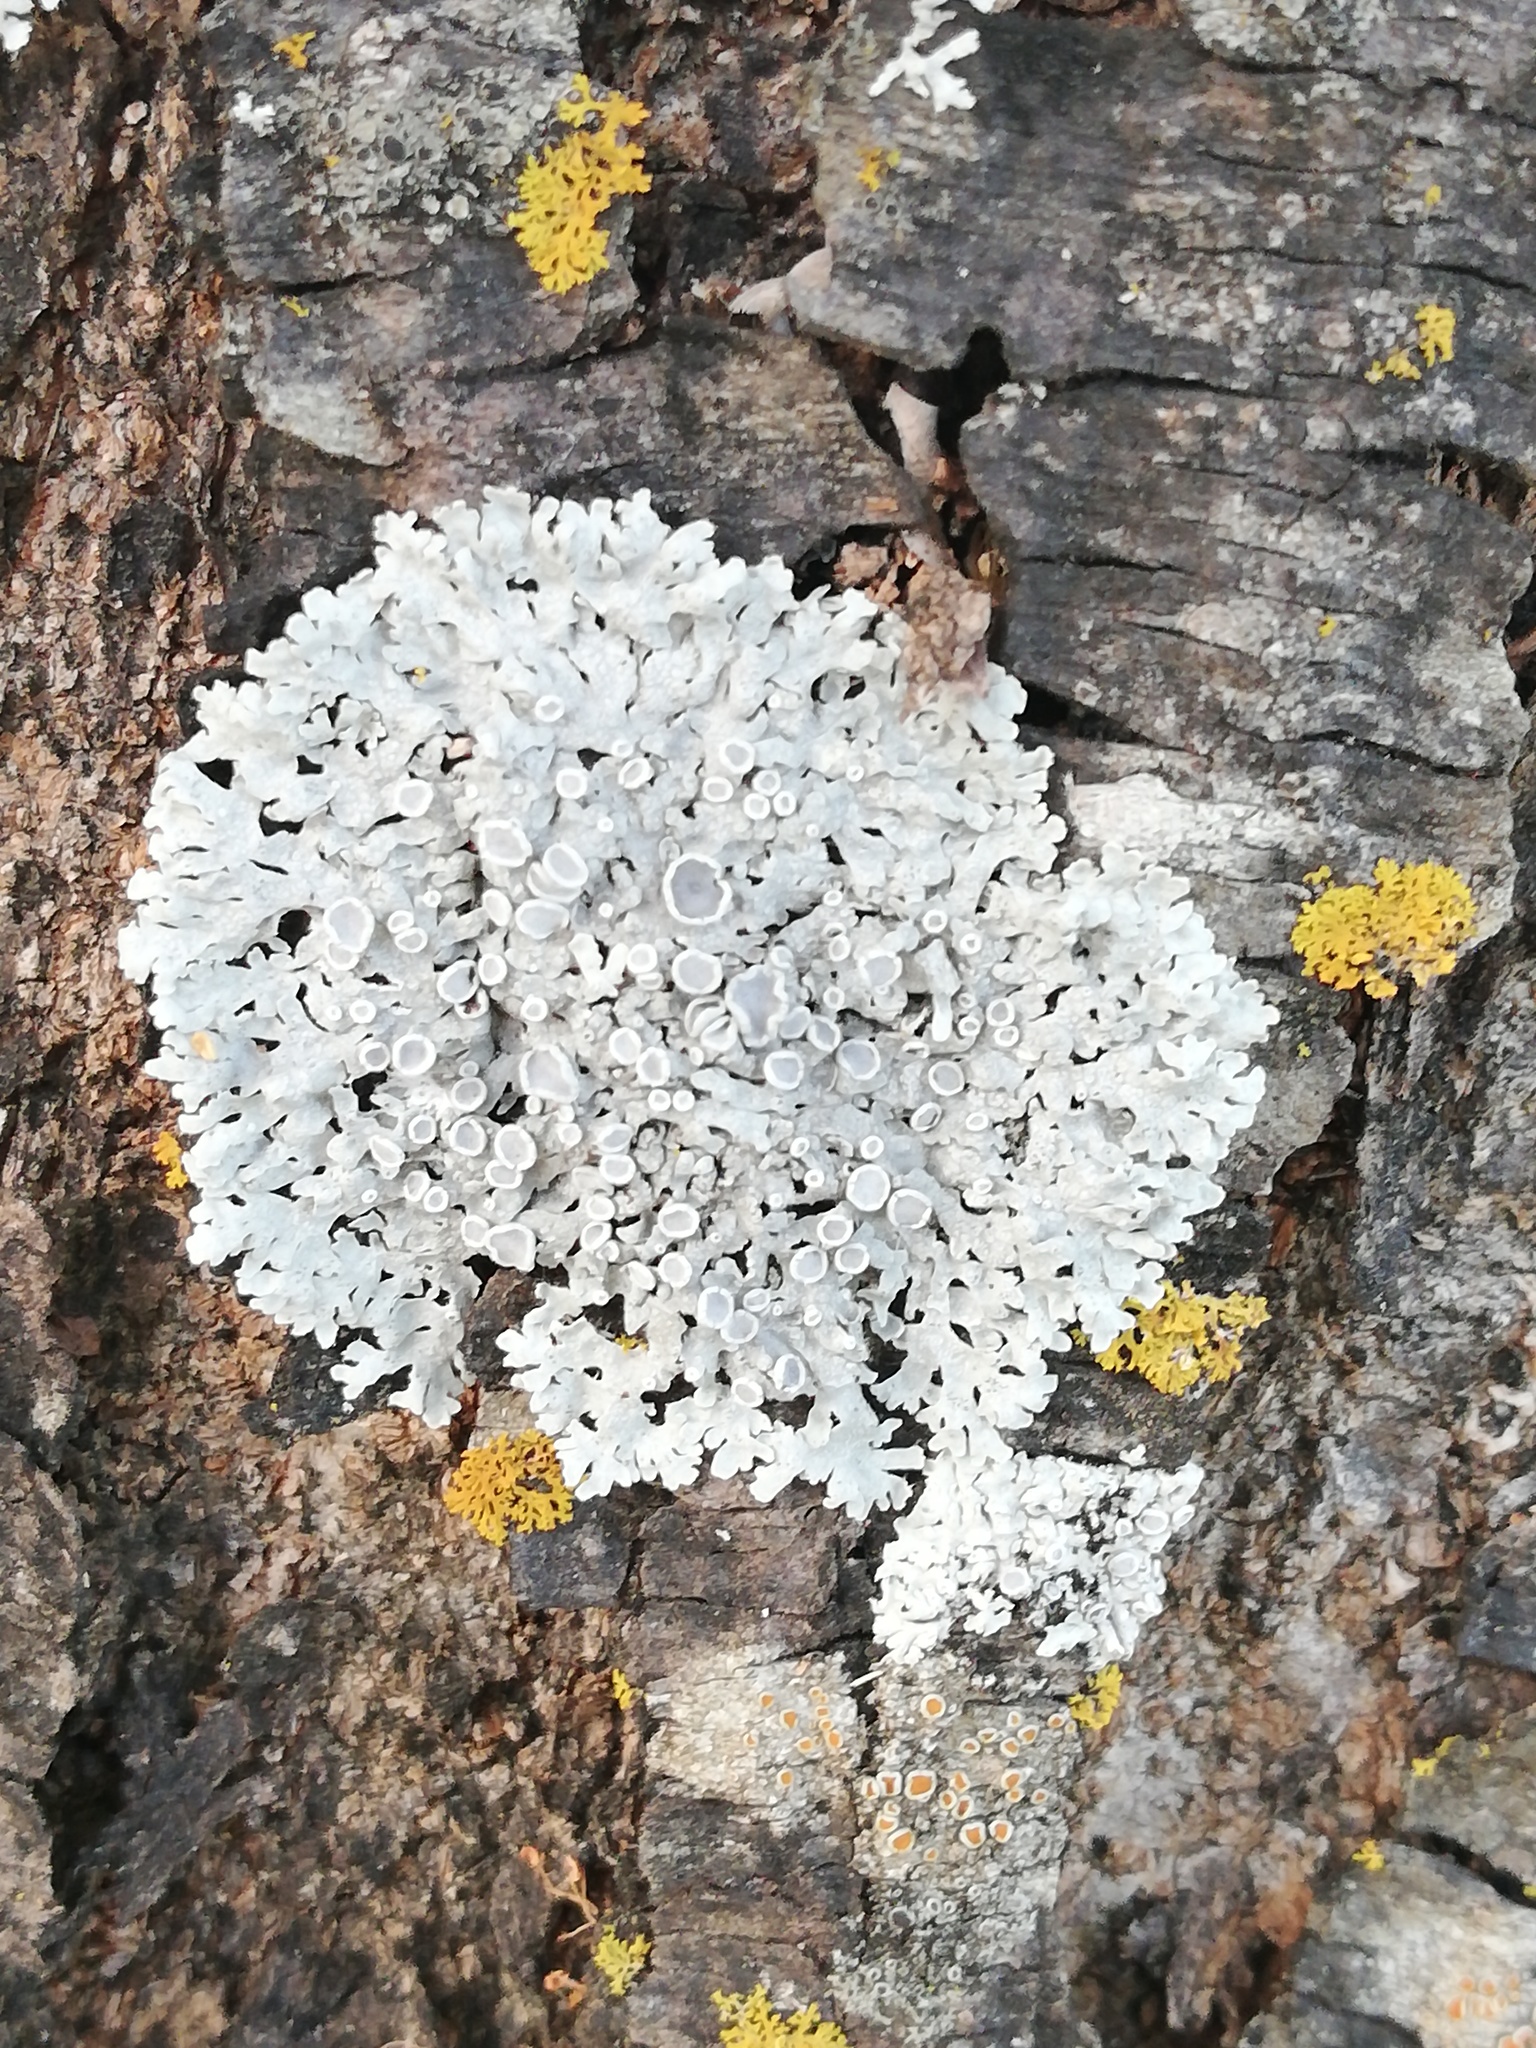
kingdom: Fungi
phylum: Ascomycota
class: Lecanoromycetes
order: Teloschistales
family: Teloschistaceae
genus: Gallowayella
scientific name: Gallowayella weberi
